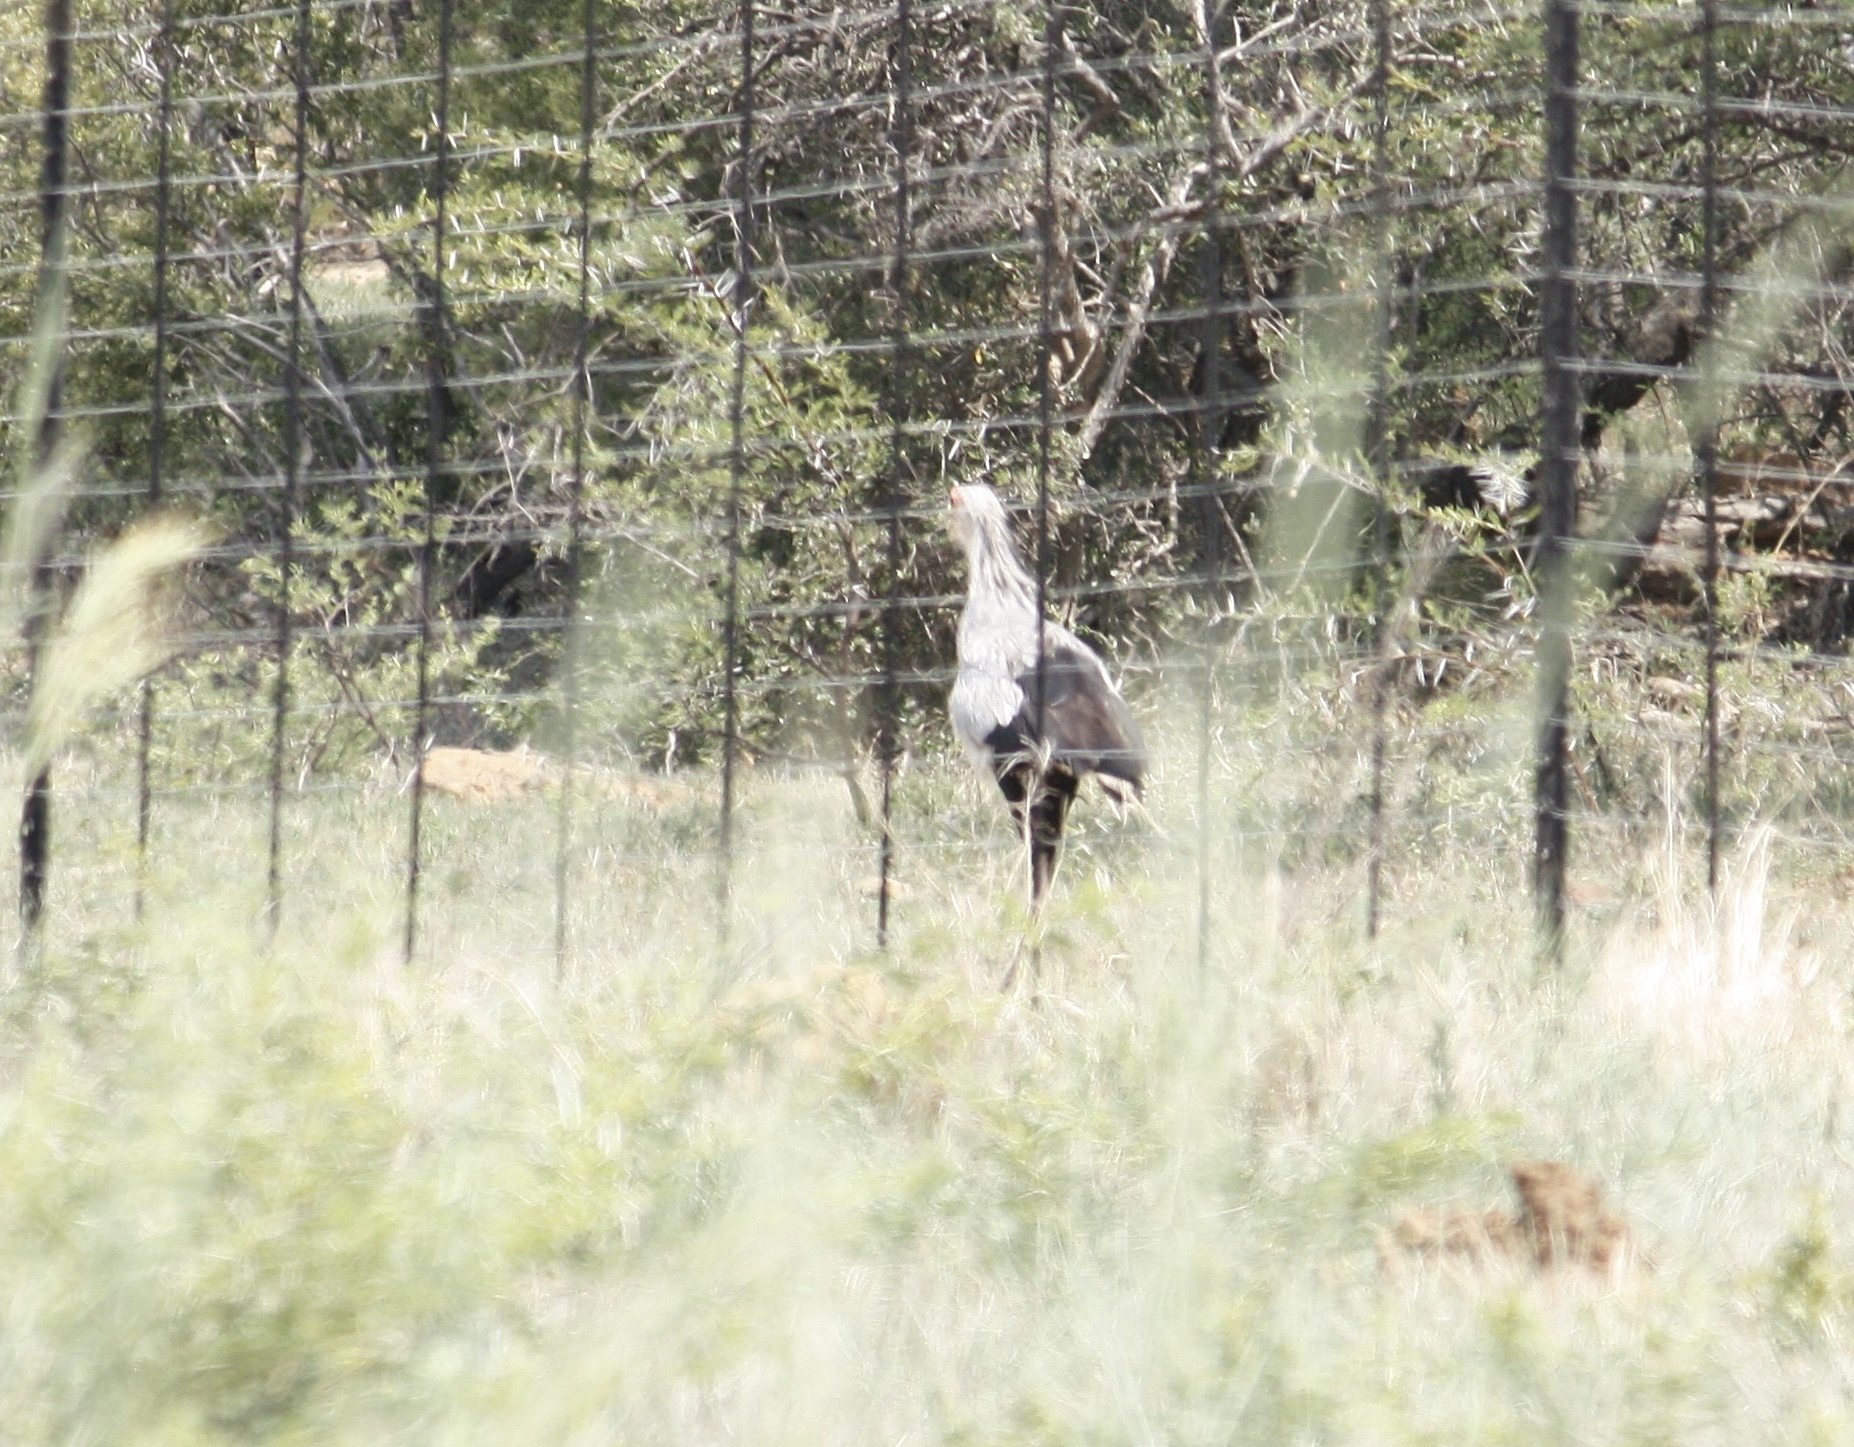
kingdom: Animalia
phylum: Chordata
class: Aves
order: Accipitriformes
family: Sagittariidae
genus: Sagittarius
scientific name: Sagittarius serpentarius
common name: Secretarybird
